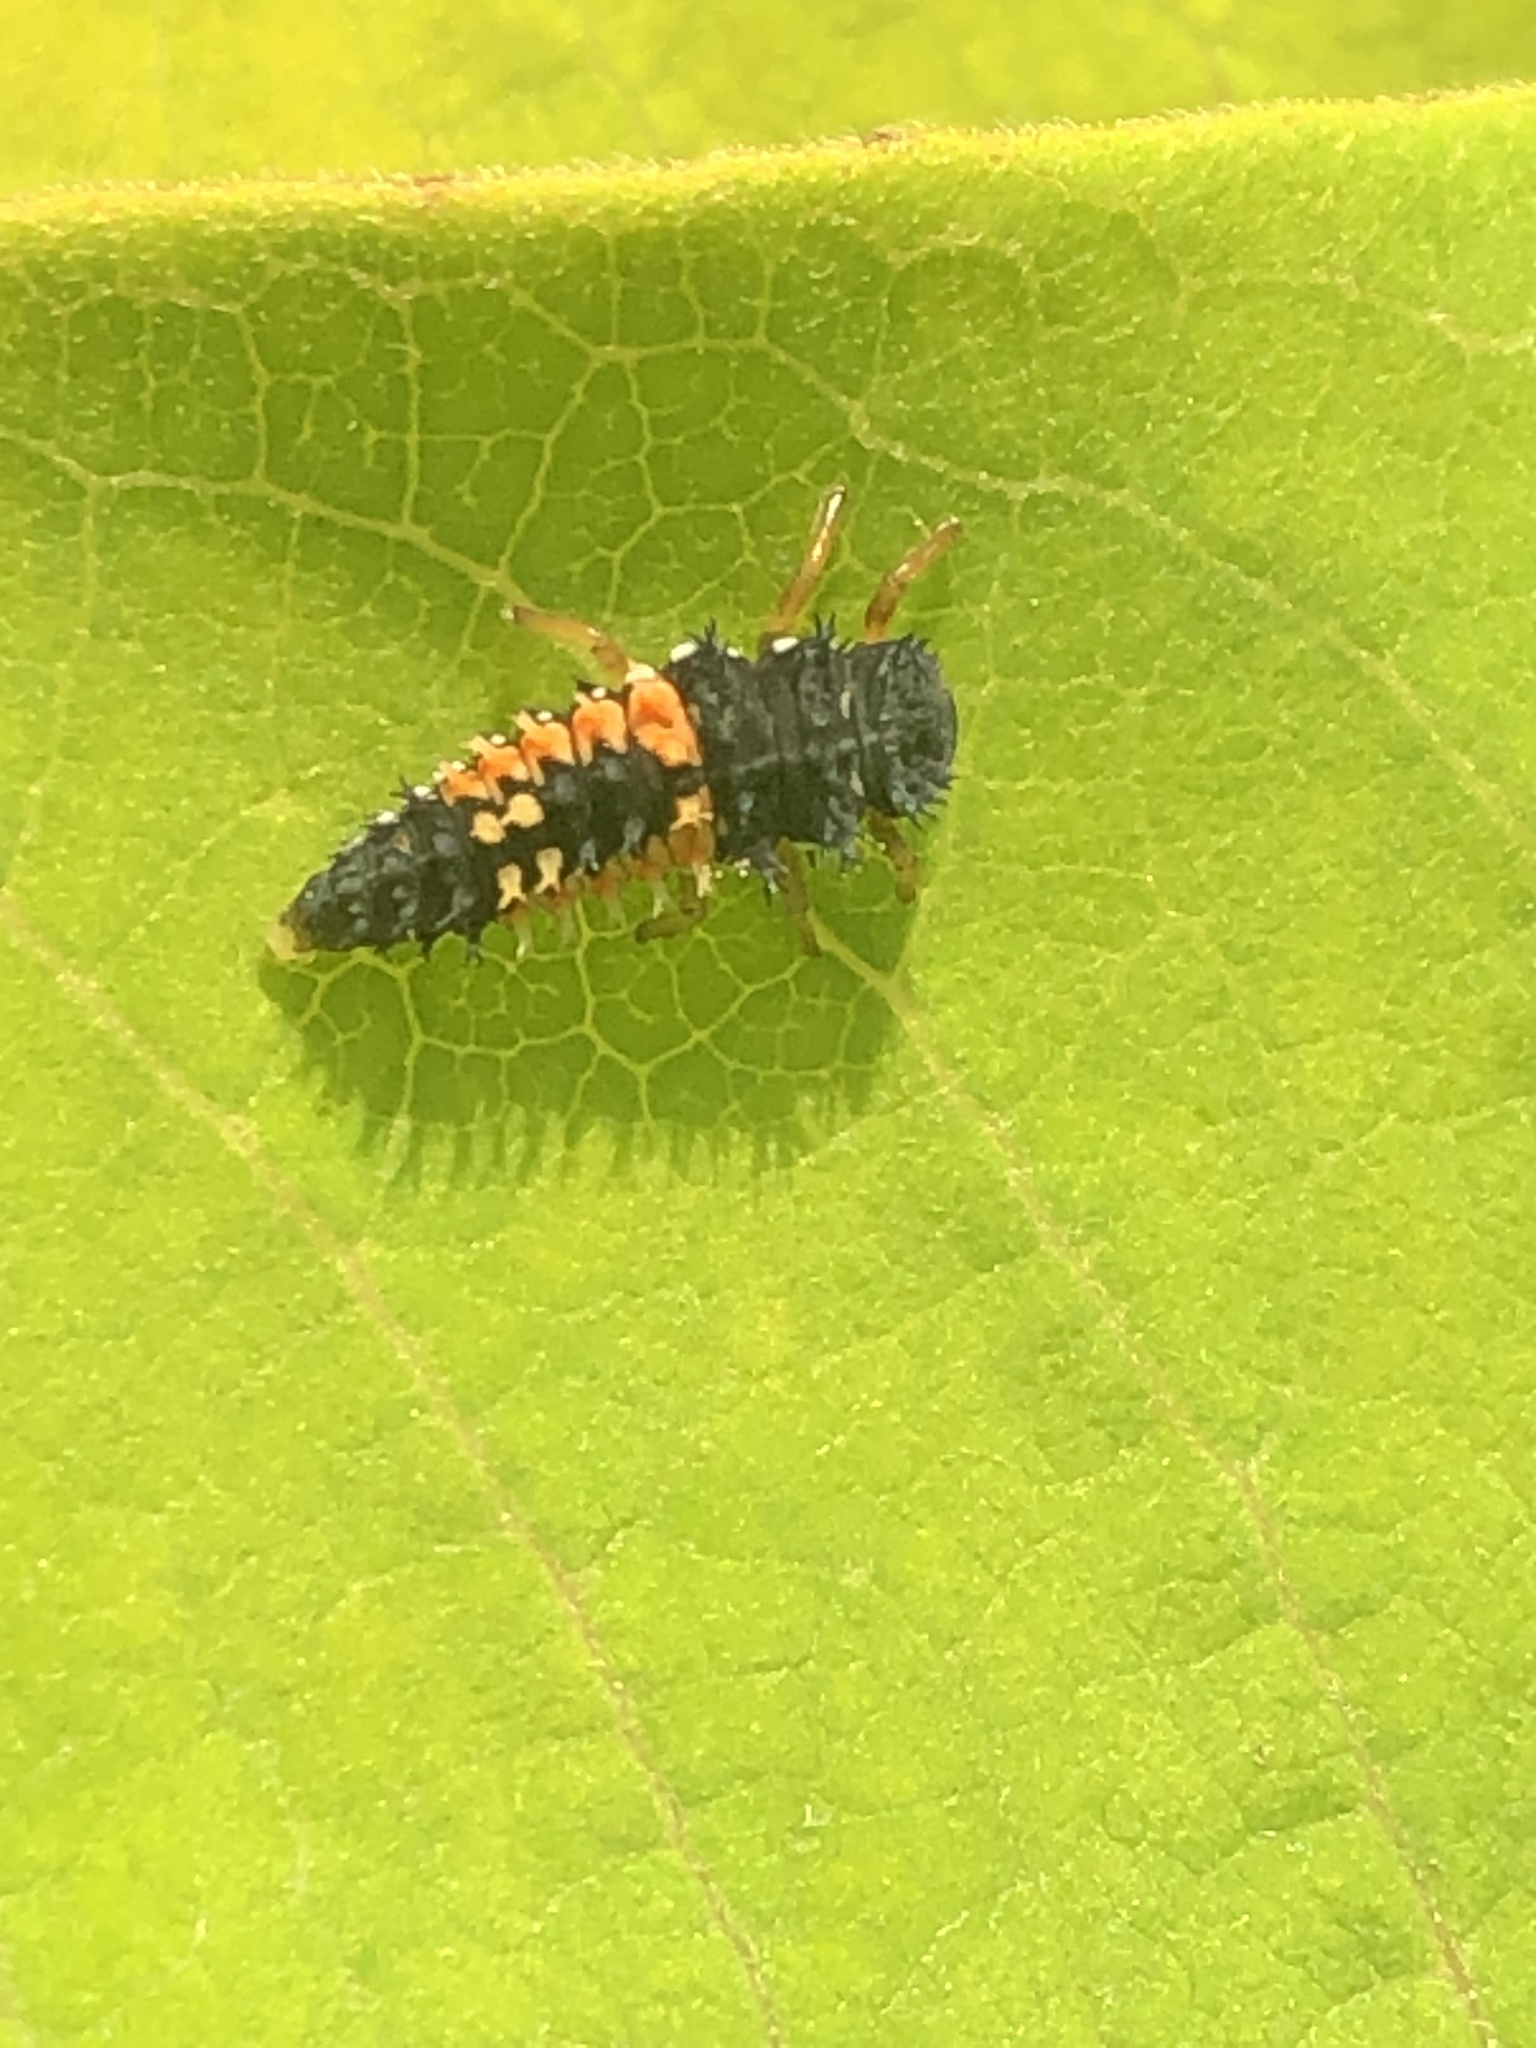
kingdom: Animalia
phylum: Arthropoda
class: Insecta
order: Coleoptera
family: Coccinellidae
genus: Harmonia
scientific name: Harmonia axyridis
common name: Harlequin ladybird
